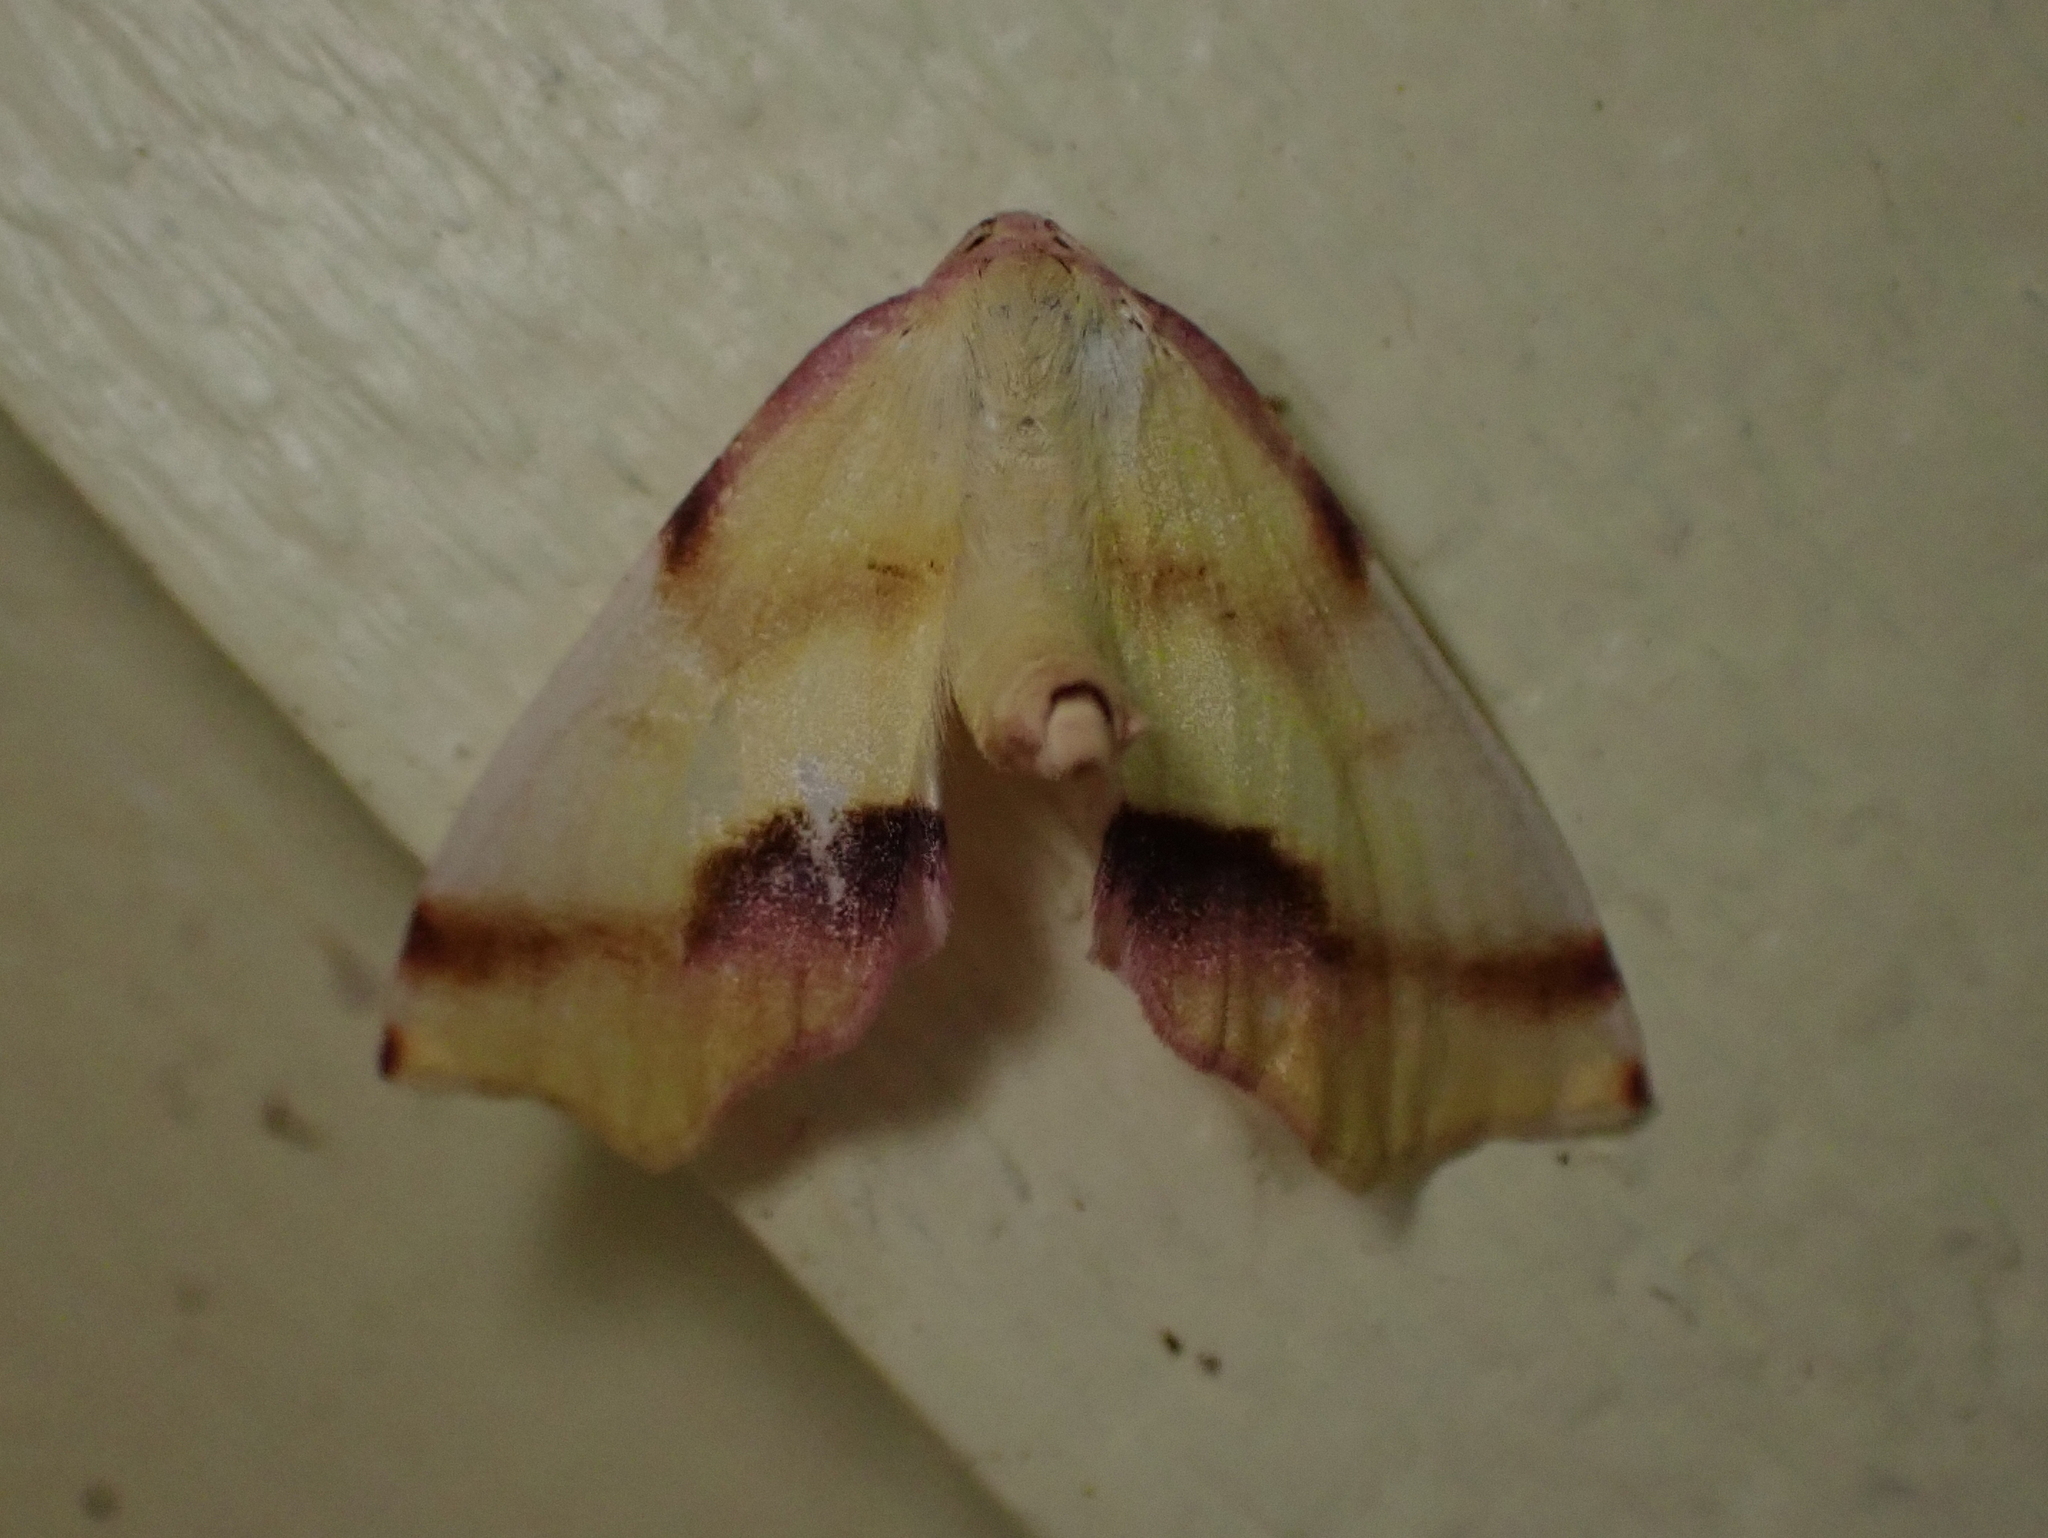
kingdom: Animalia
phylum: Arthropoda
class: Insecta
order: Lepidoptera
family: Geometridae
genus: Plagodis
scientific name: Plagodis serinaria
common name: Lemon plagodis
